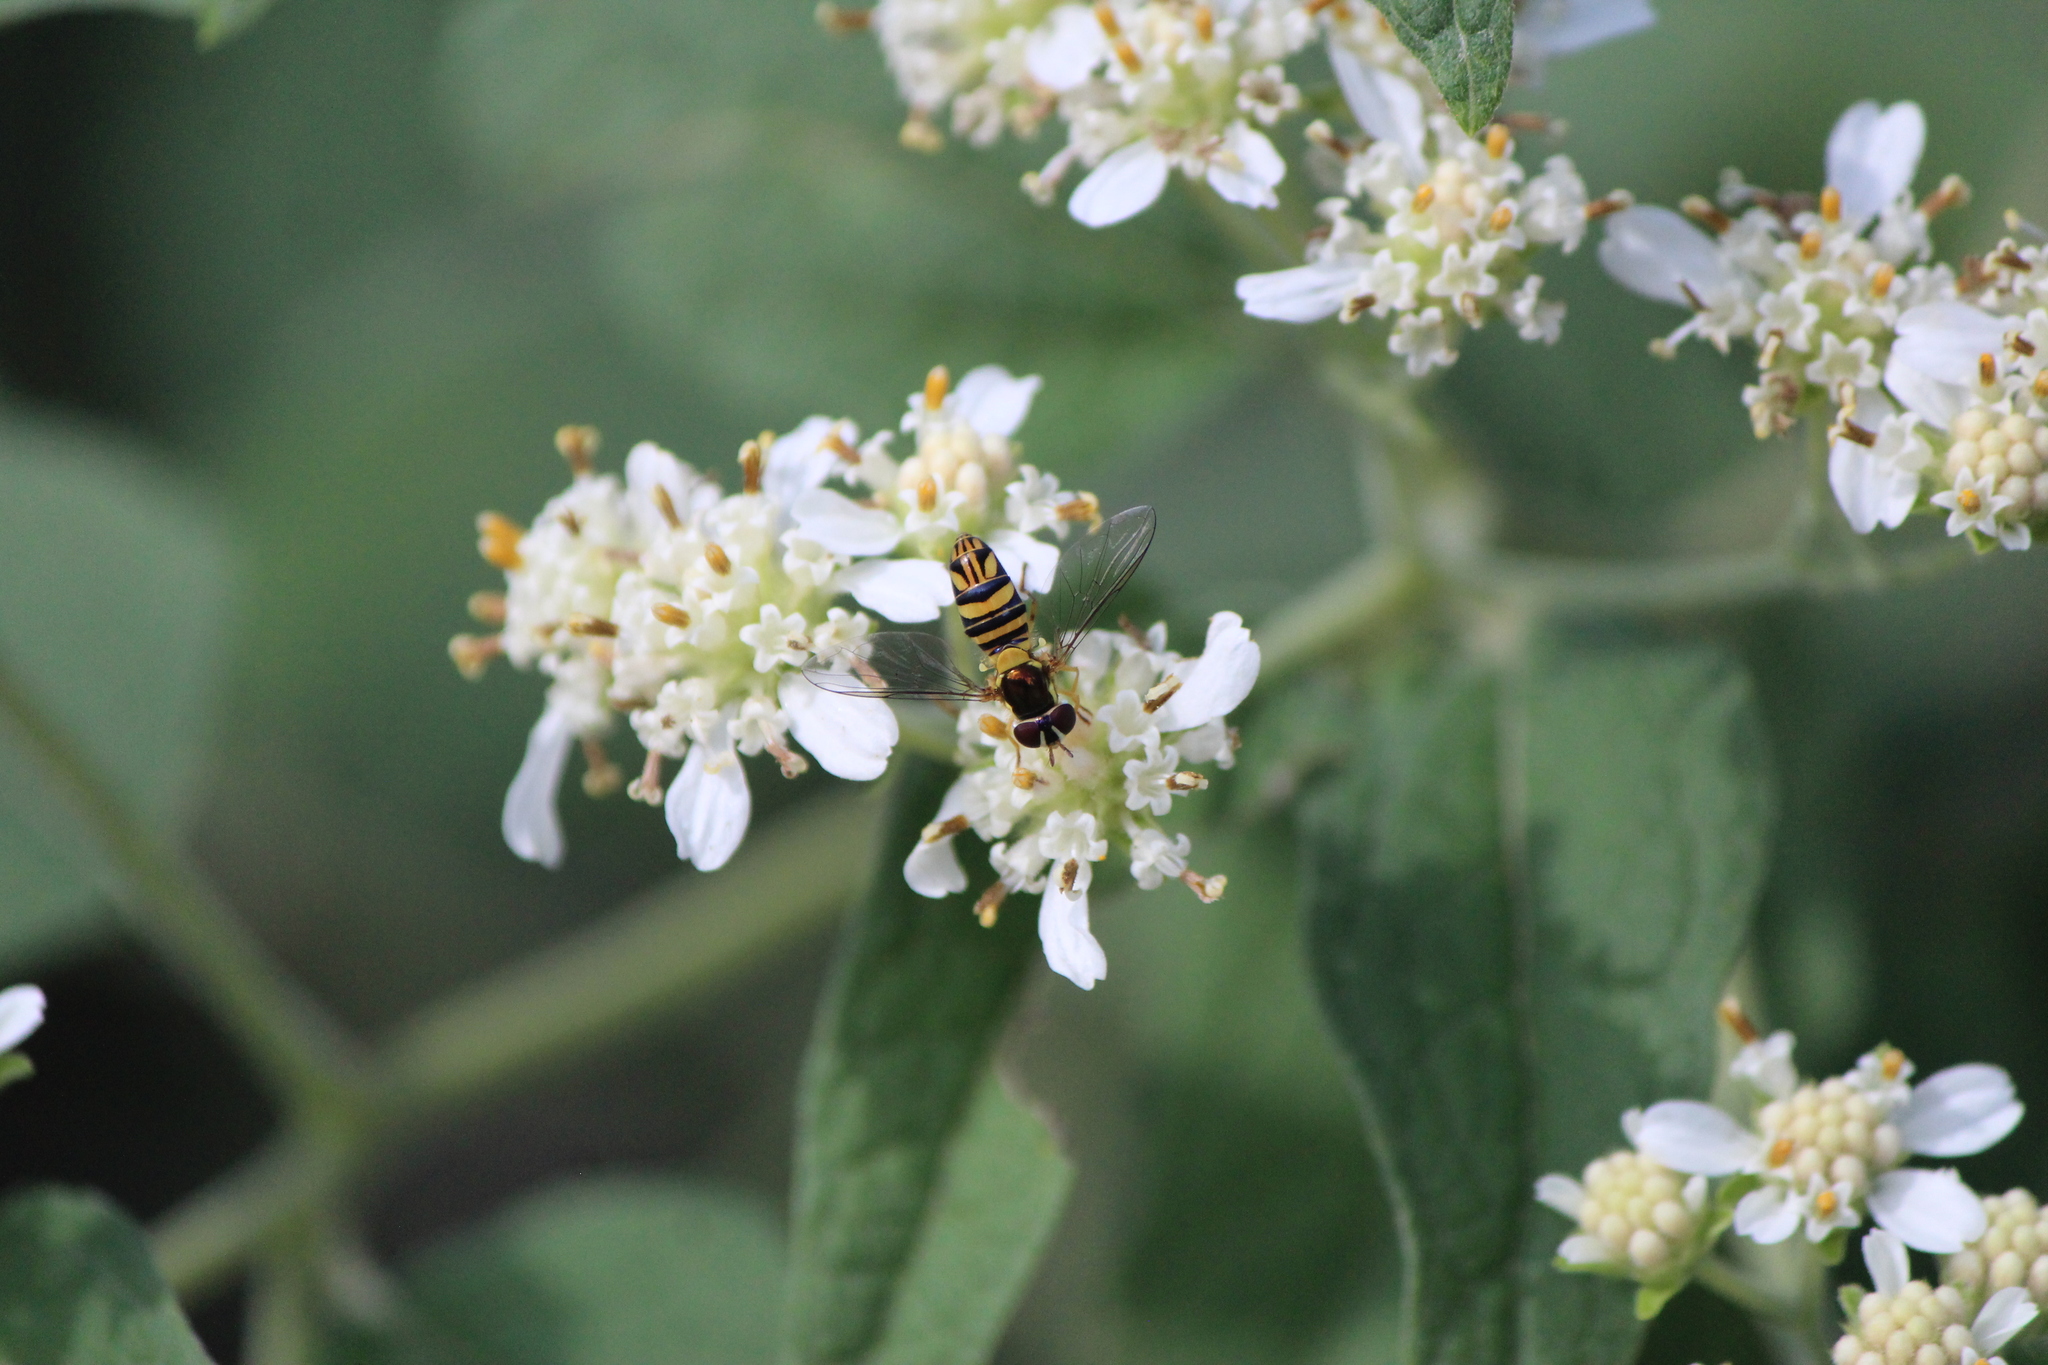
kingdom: Animalia
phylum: Arthropoda
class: Insecta
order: Diptera
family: Syrphidae
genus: Allograpta
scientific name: Allograpta obliqua
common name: Common oblique syrphid
